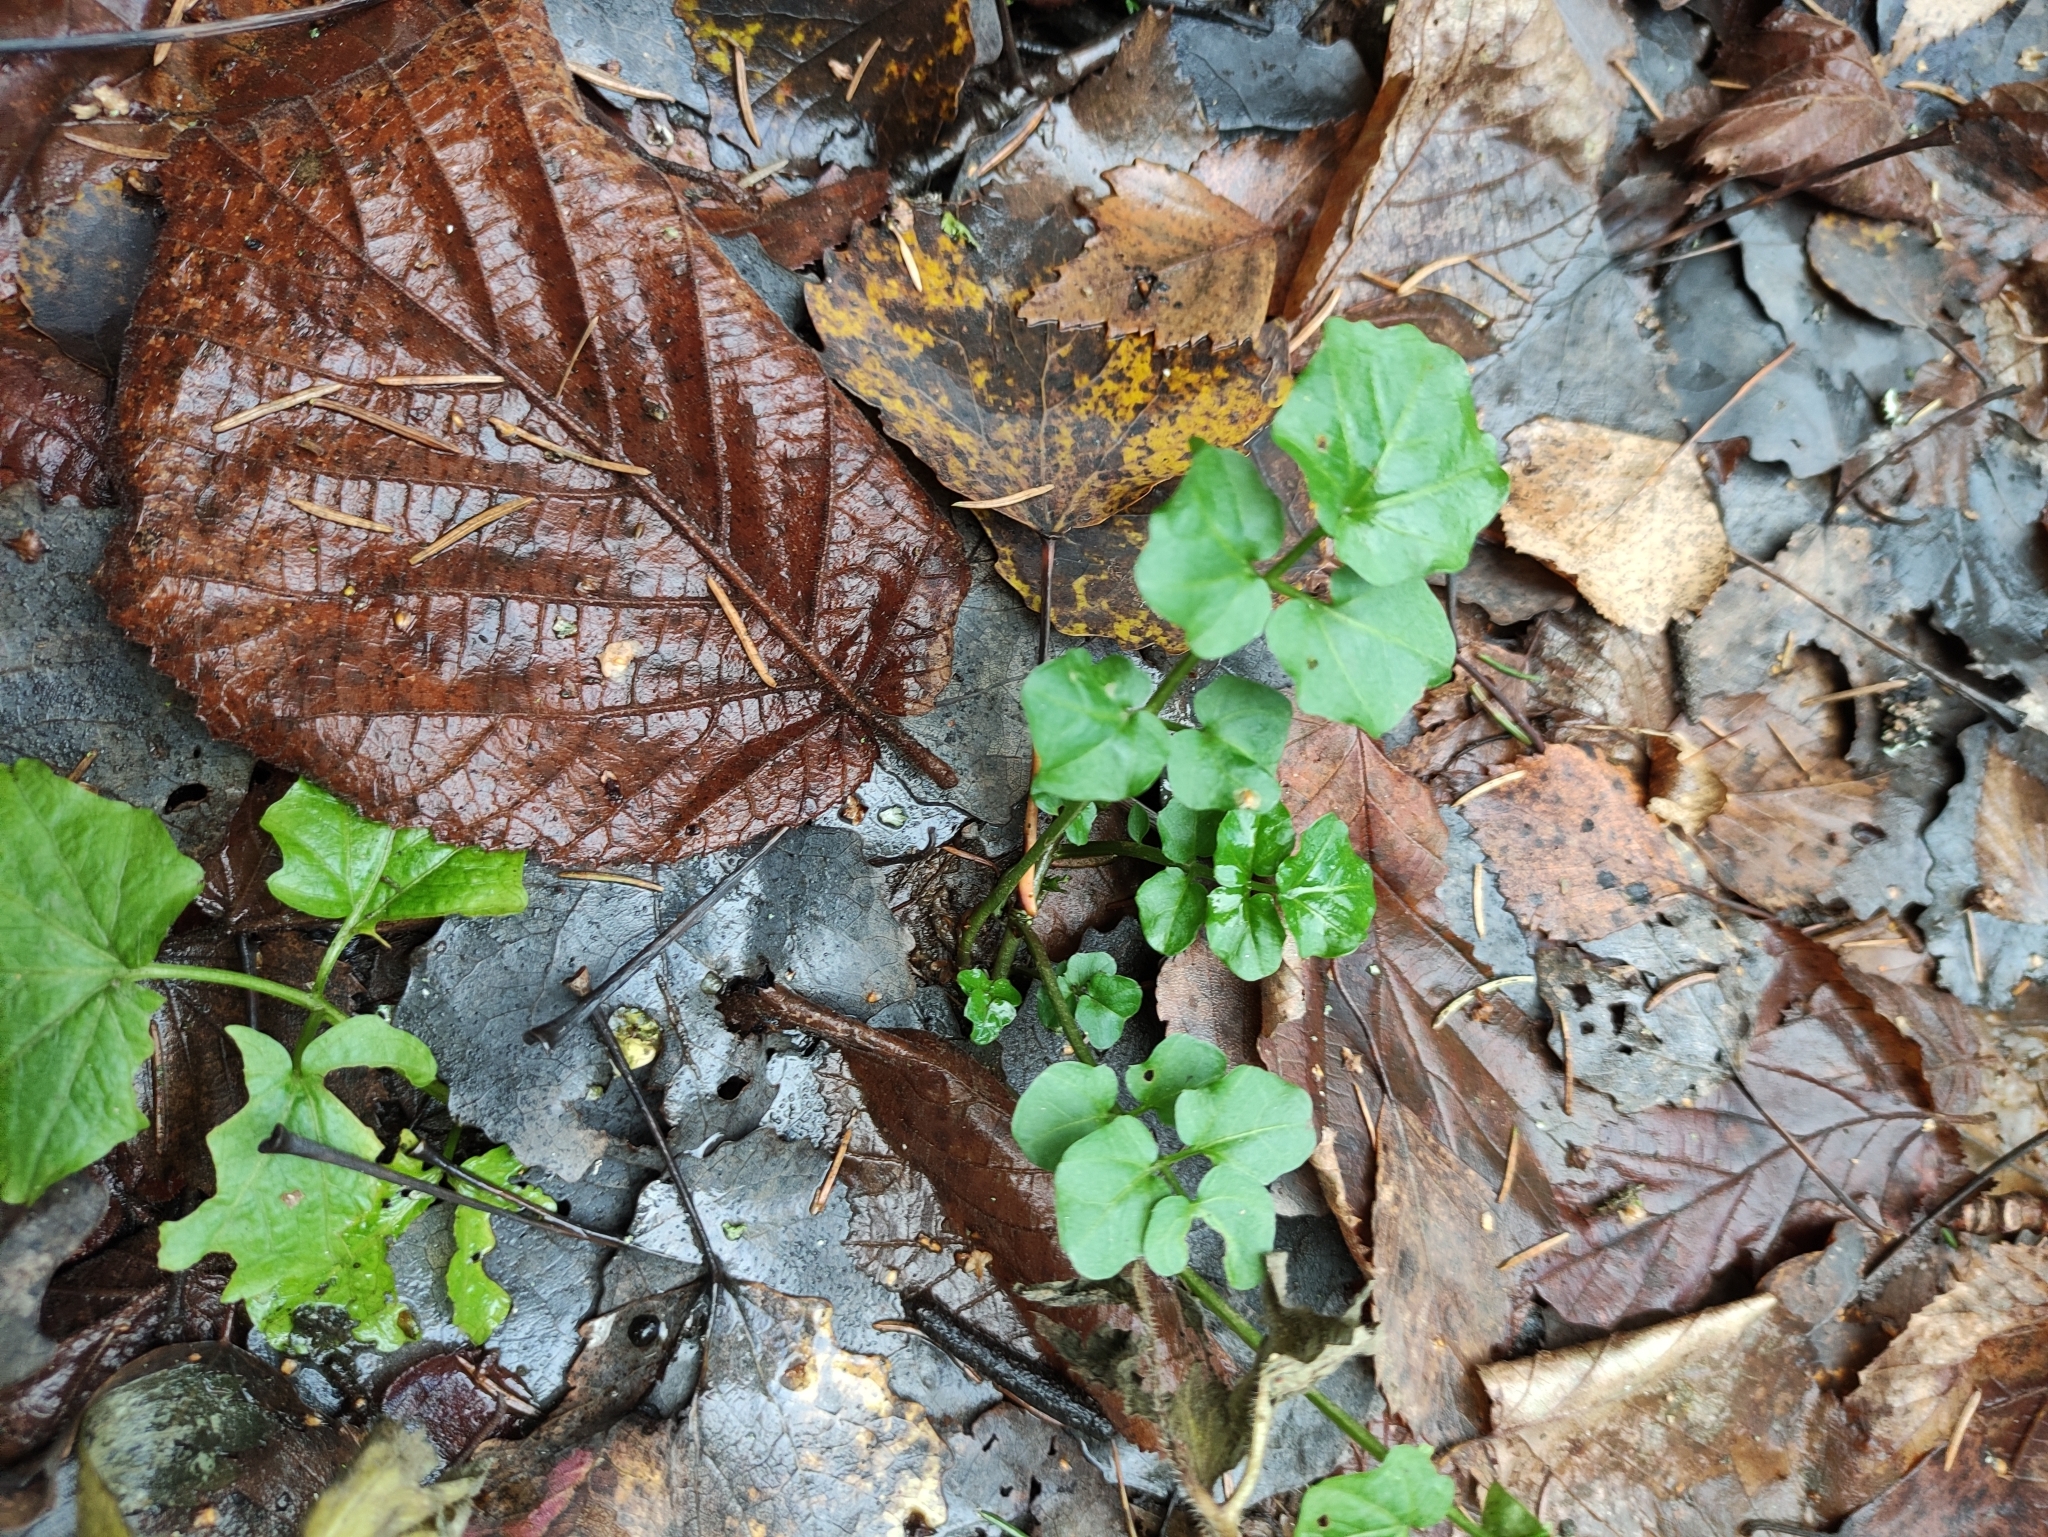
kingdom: Plantae
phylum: Tracheophyta
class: Magnoliopsida
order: Brassicales
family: Brassicaceae
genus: Cardamine
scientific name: Cardamine amara
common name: Large bitter-cress
